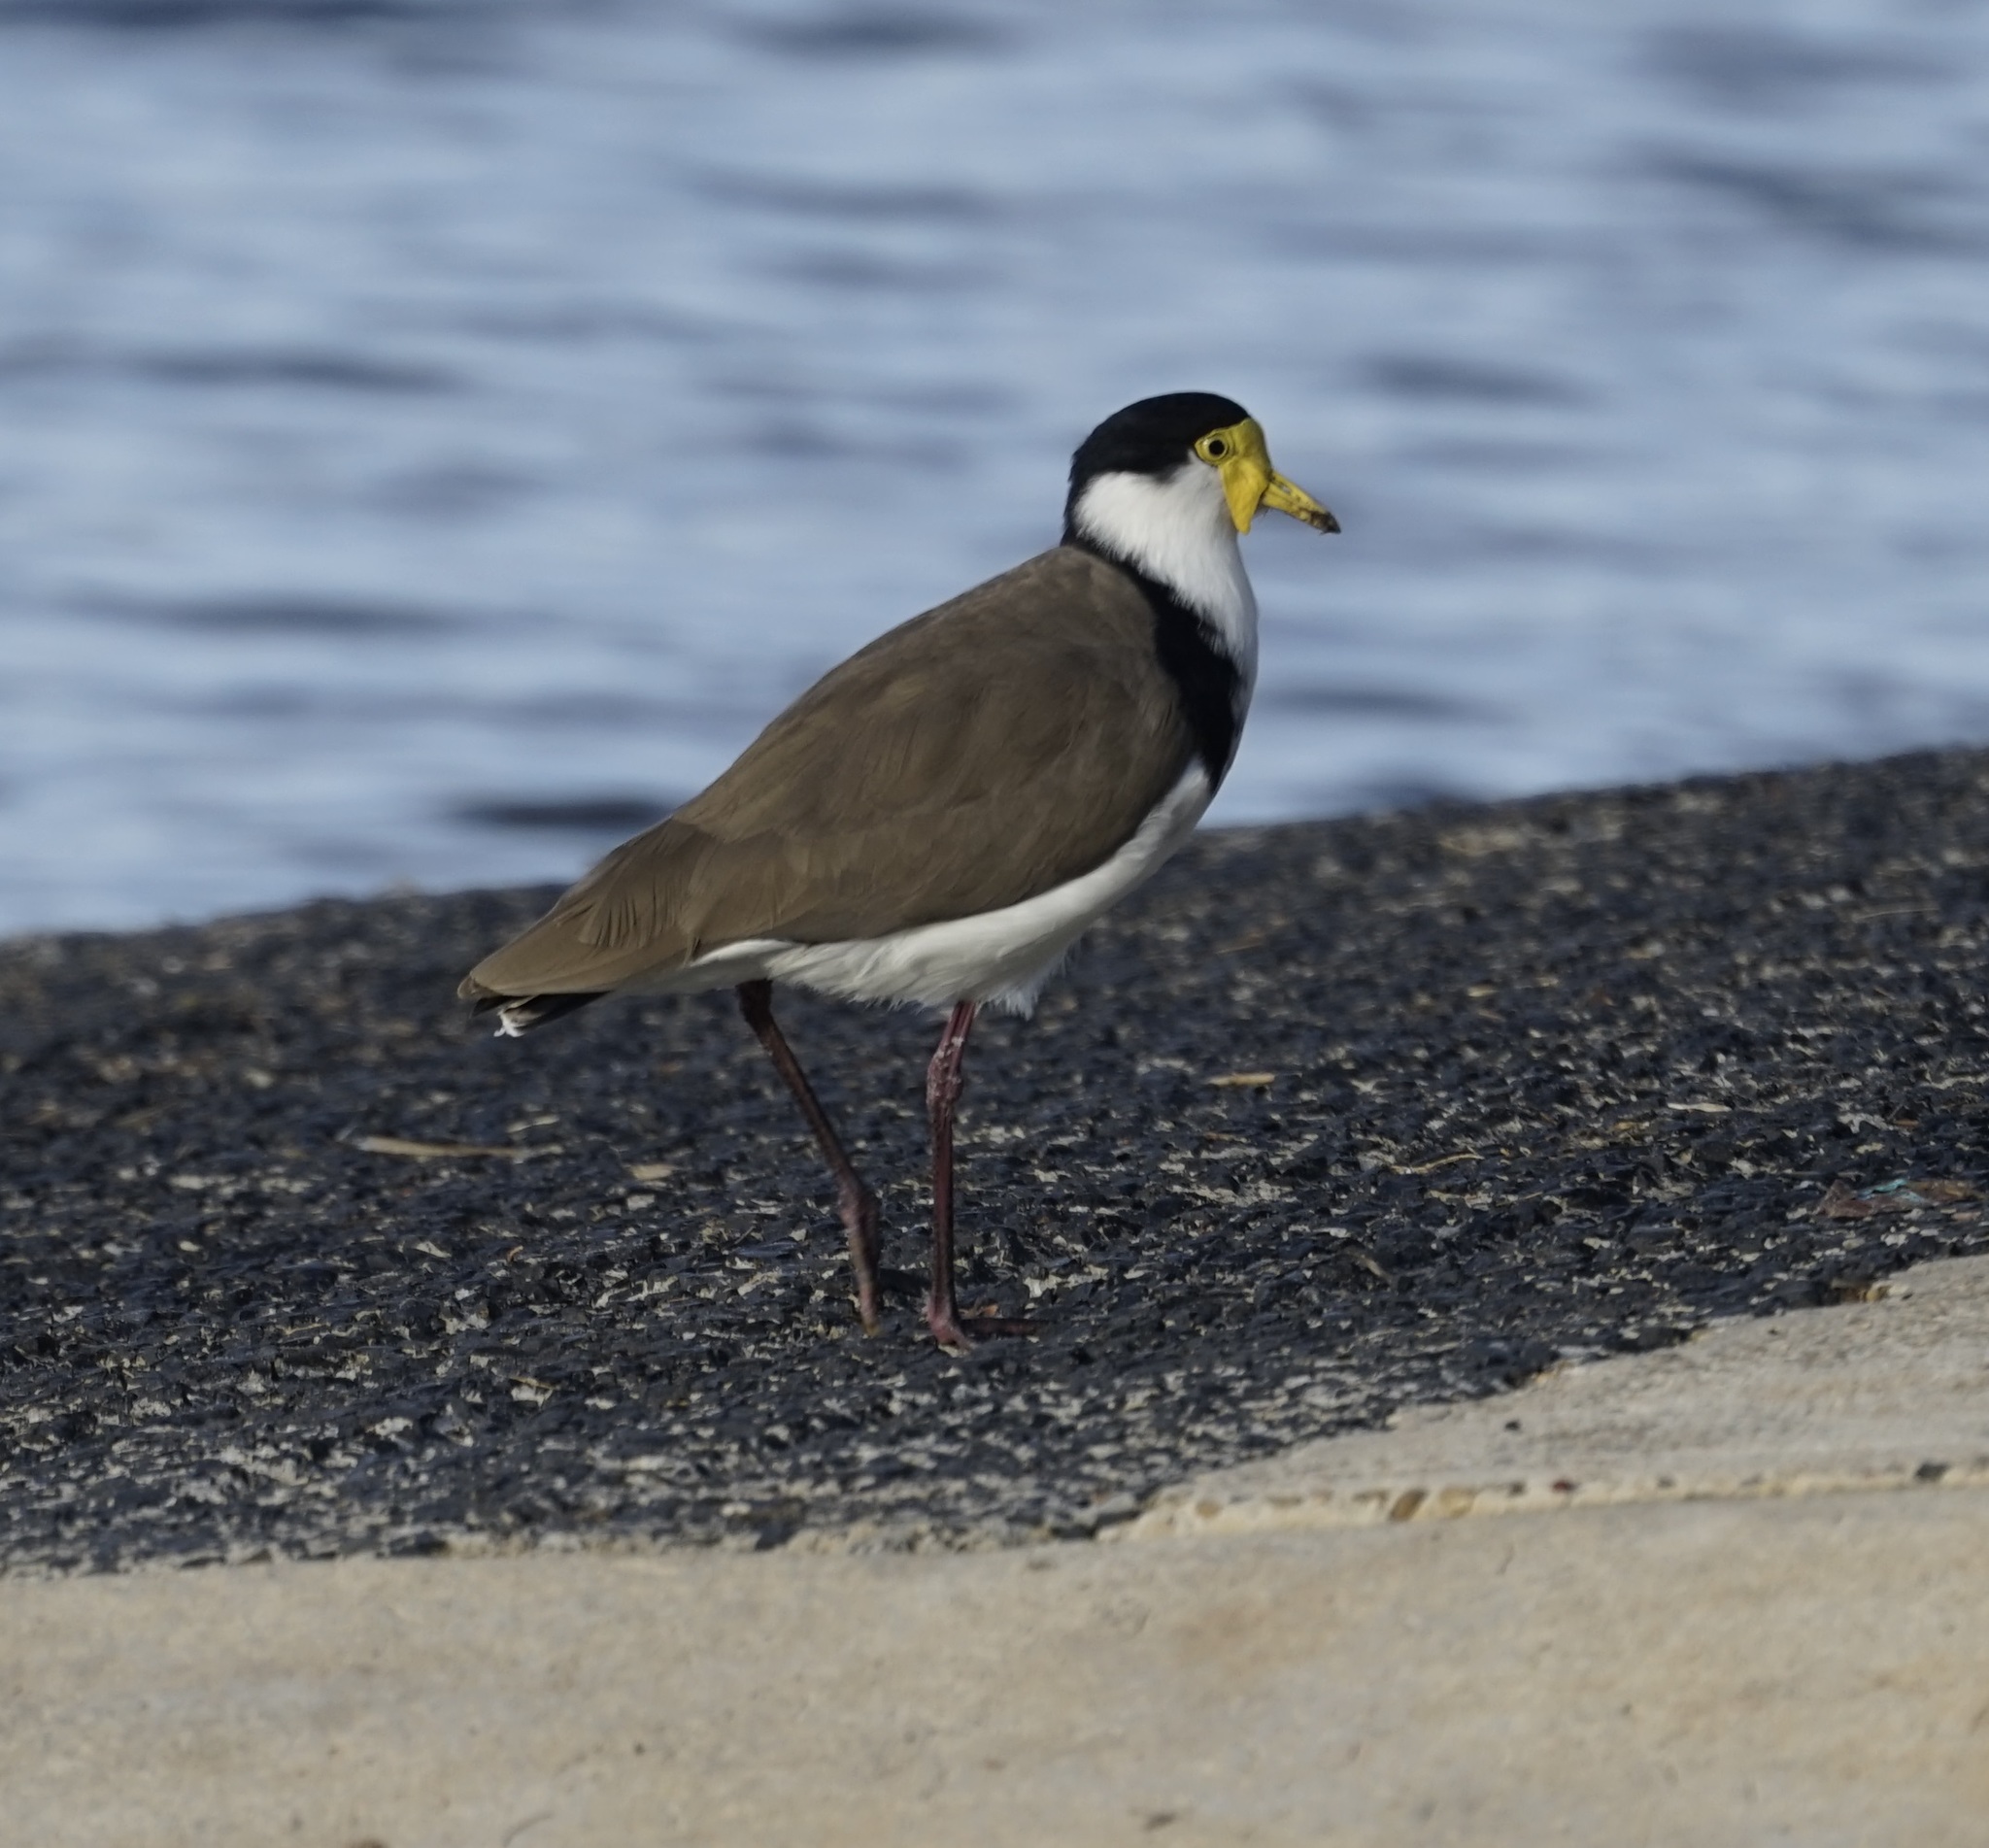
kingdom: Animalia
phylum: Chordata
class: Aves
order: Charadriiformes
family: Charadriidae
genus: Vanellus
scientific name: Vanellus miles
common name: Masked lapwing
